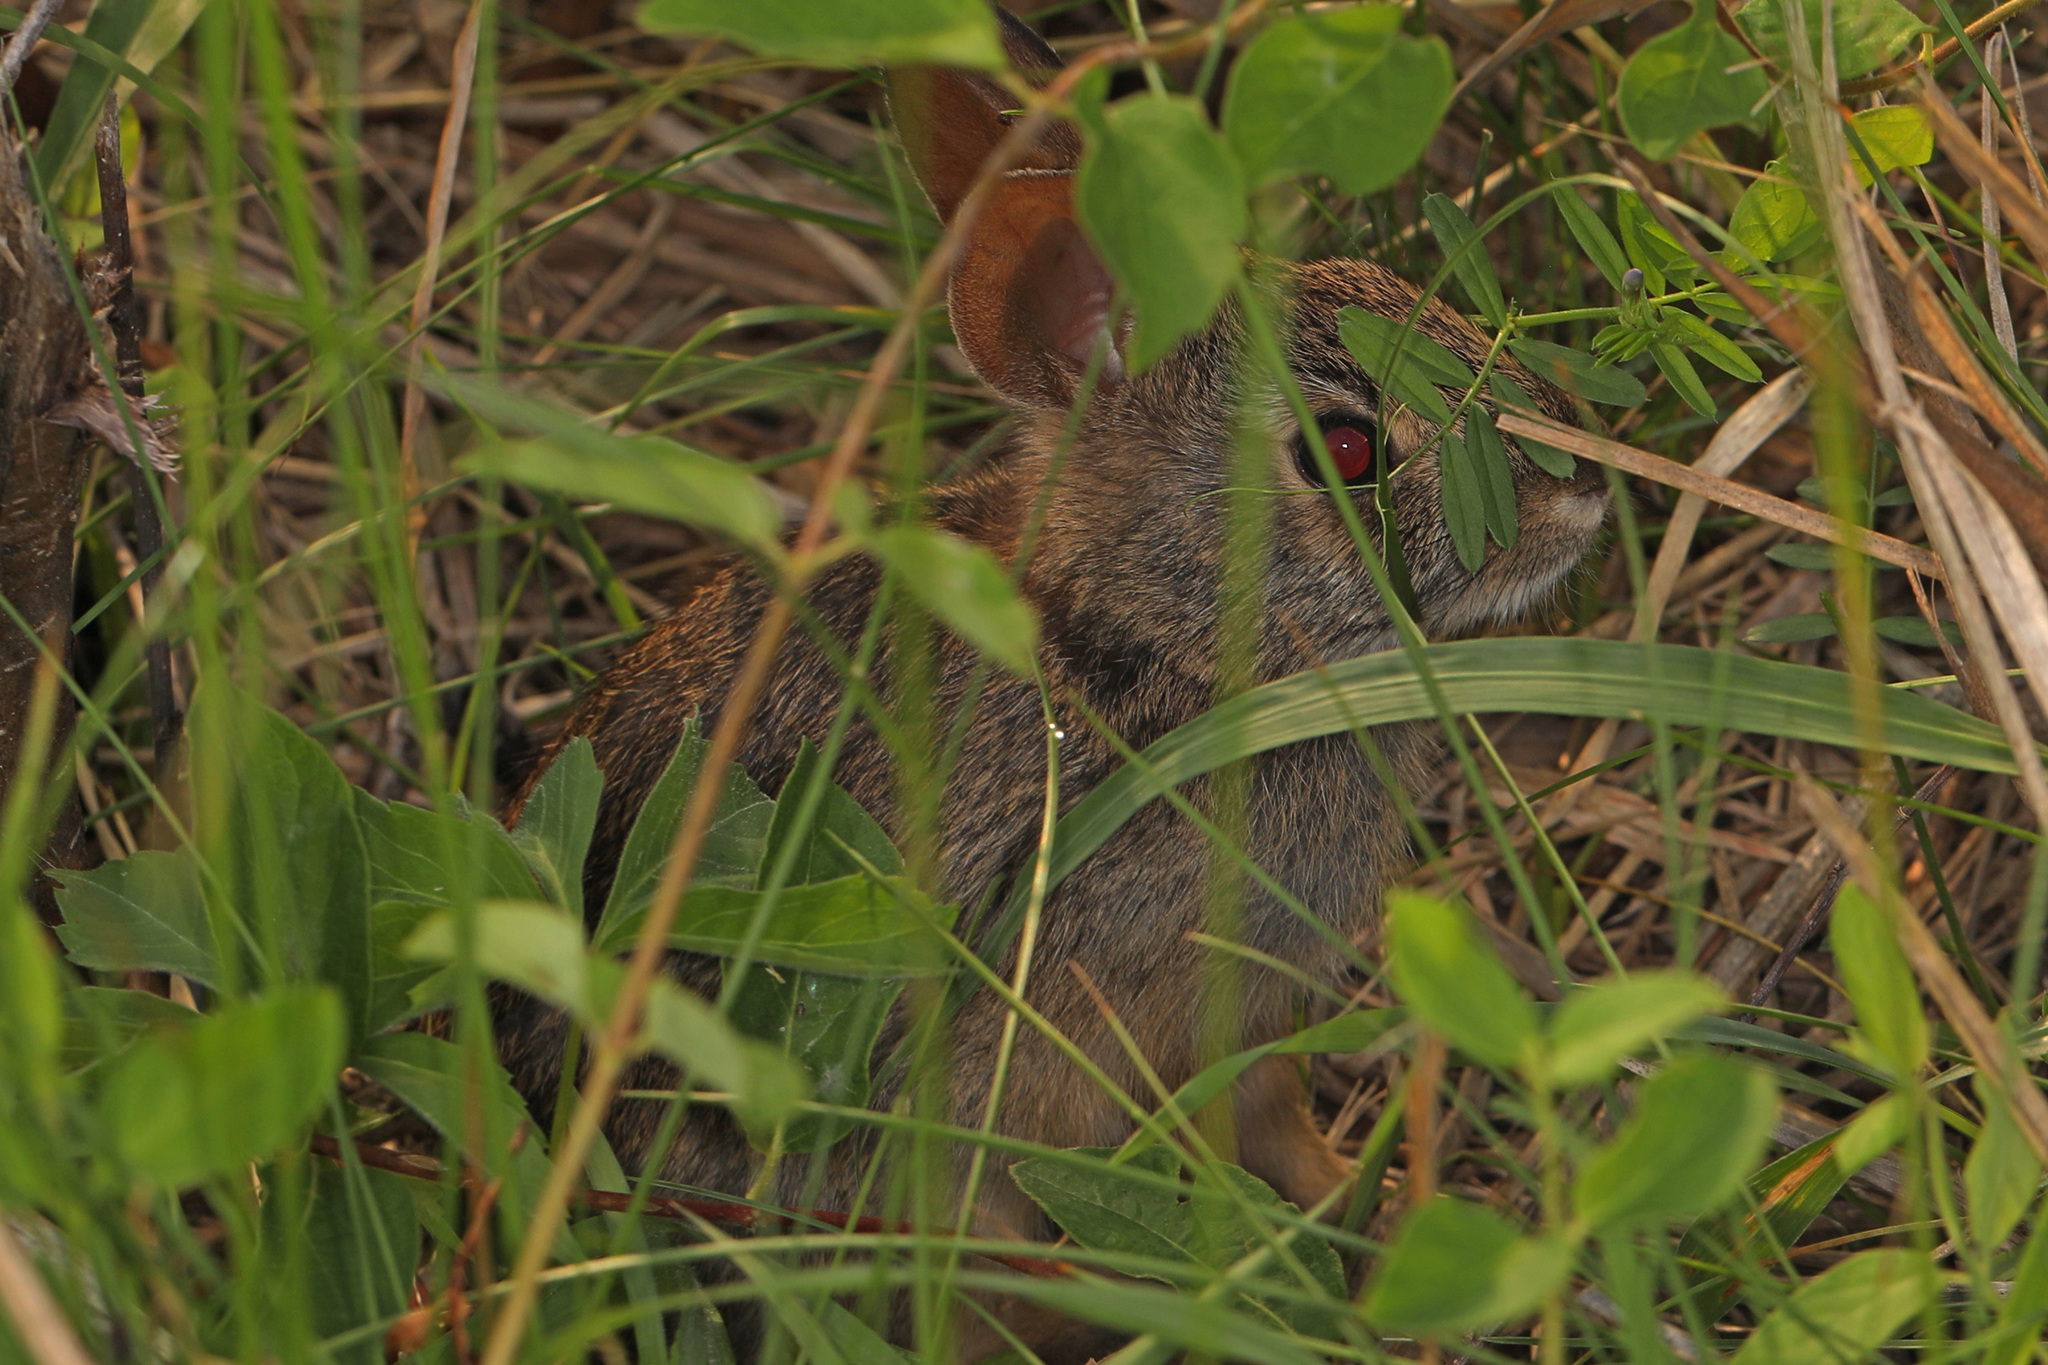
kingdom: Animalia
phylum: Chordata
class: Mammalia
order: Lagomorpha
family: Leporidae
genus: Sylvilagus
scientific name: Sylvilagus floridanus
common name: Eastern cottontail
